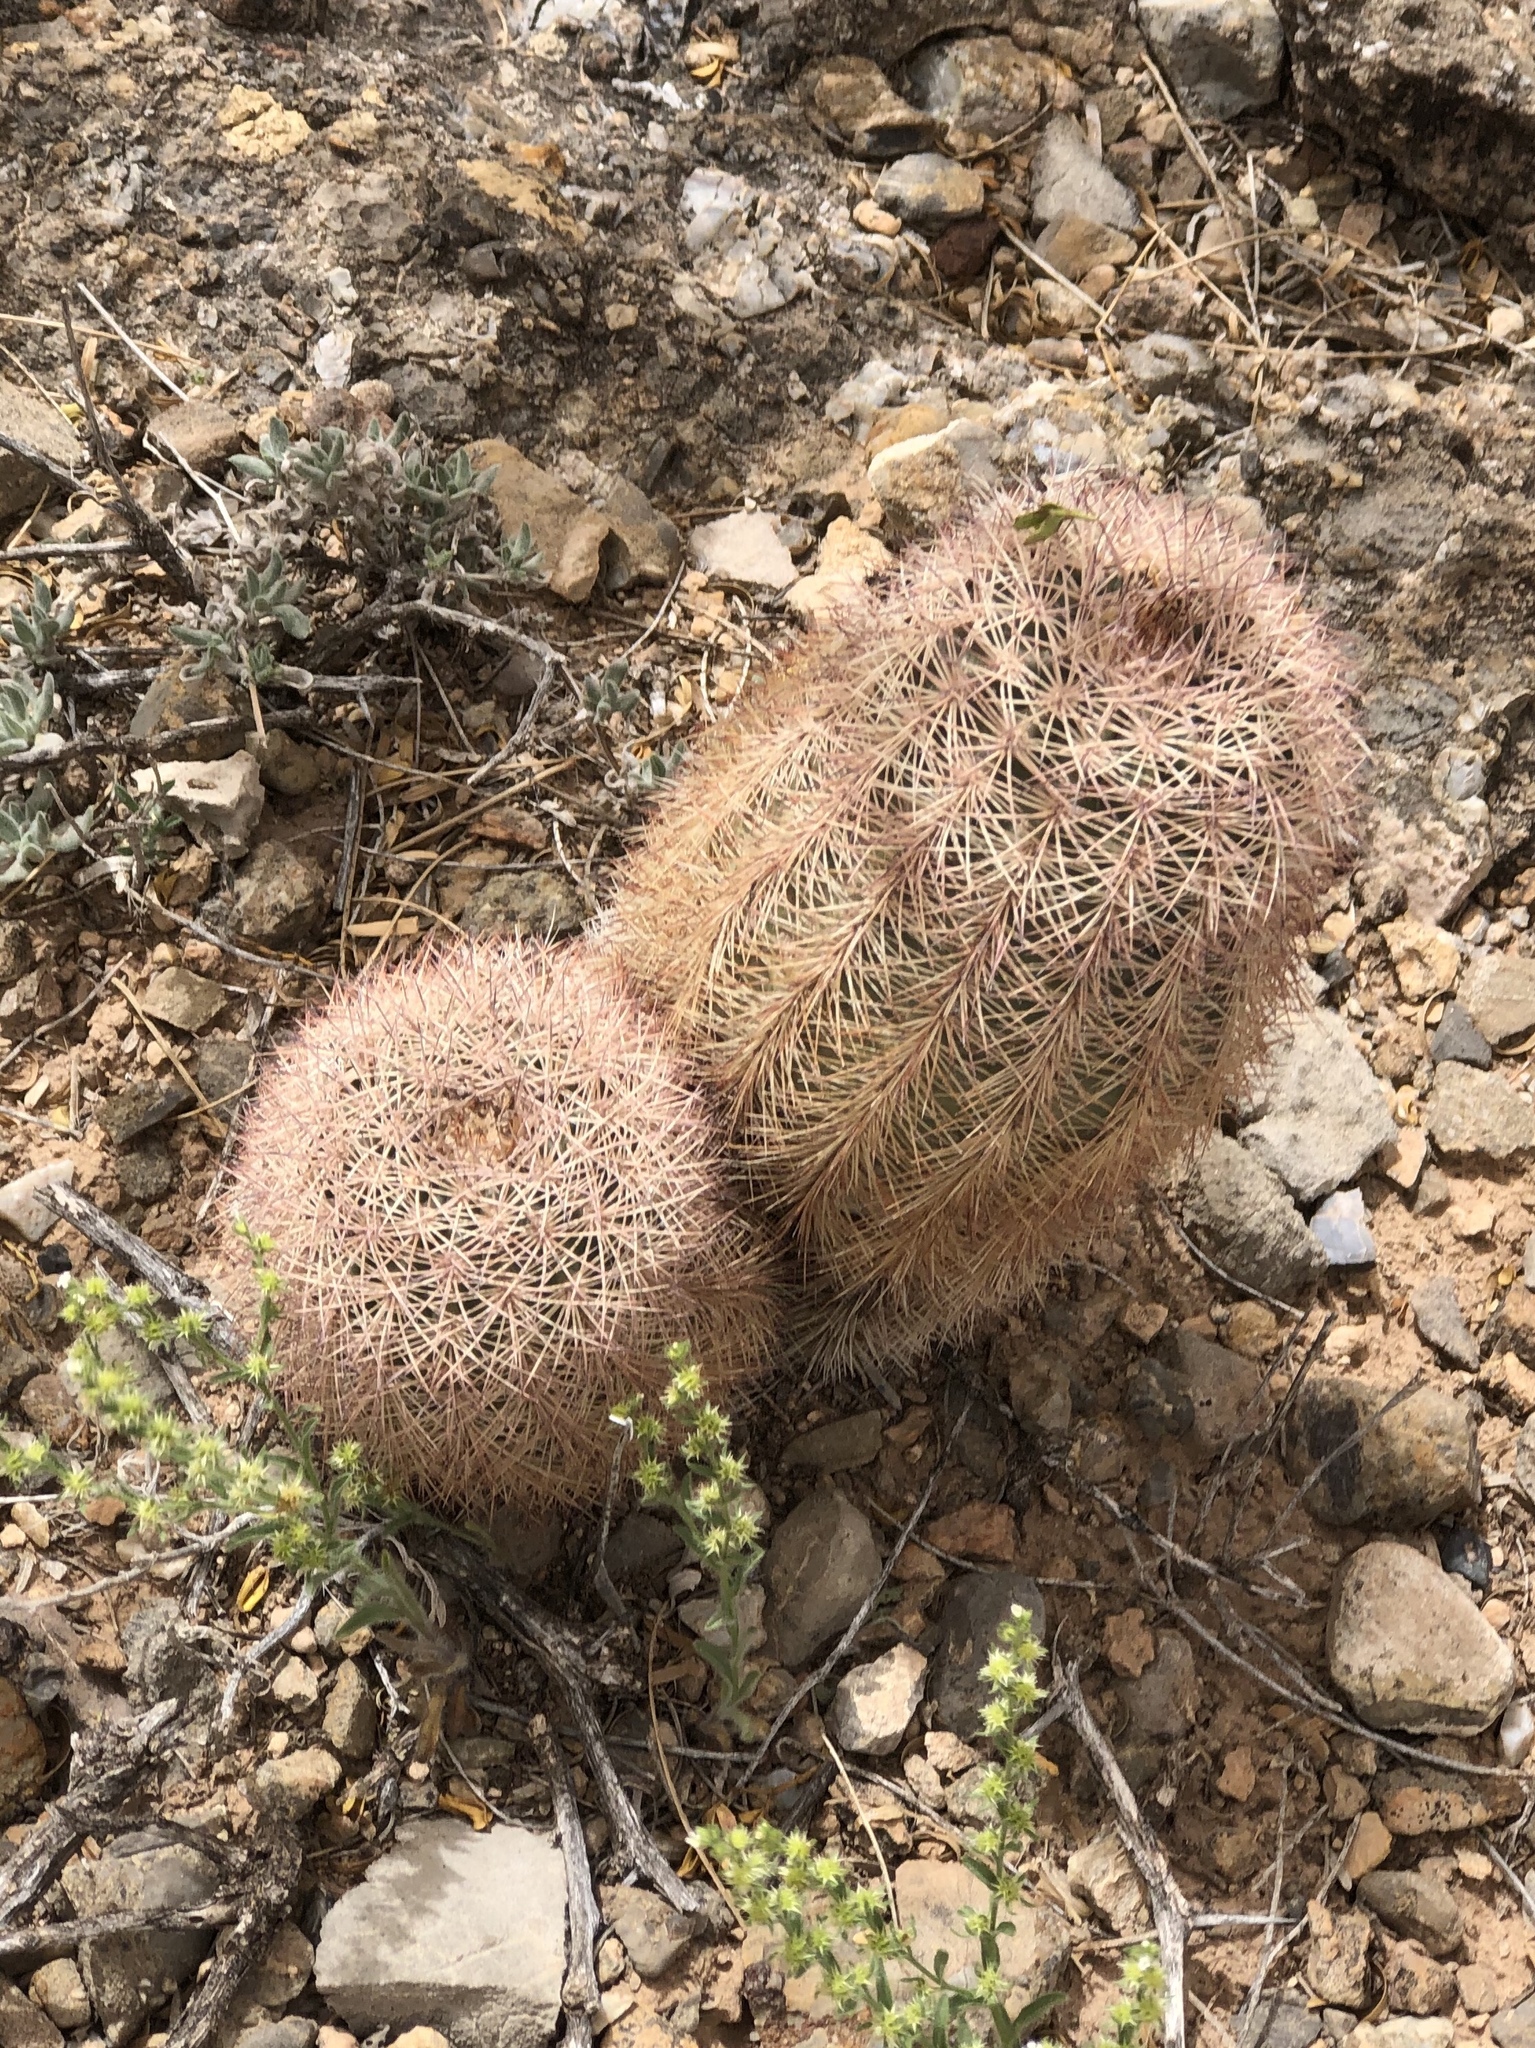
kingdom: Plantae
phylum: Tracheophyta
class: Magnoliopsida
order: Caryophyllales
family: Cactaceae
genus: Echinocereus
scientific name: Echinocereus dasyacanthus
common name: Spiny hedgehog cactus
